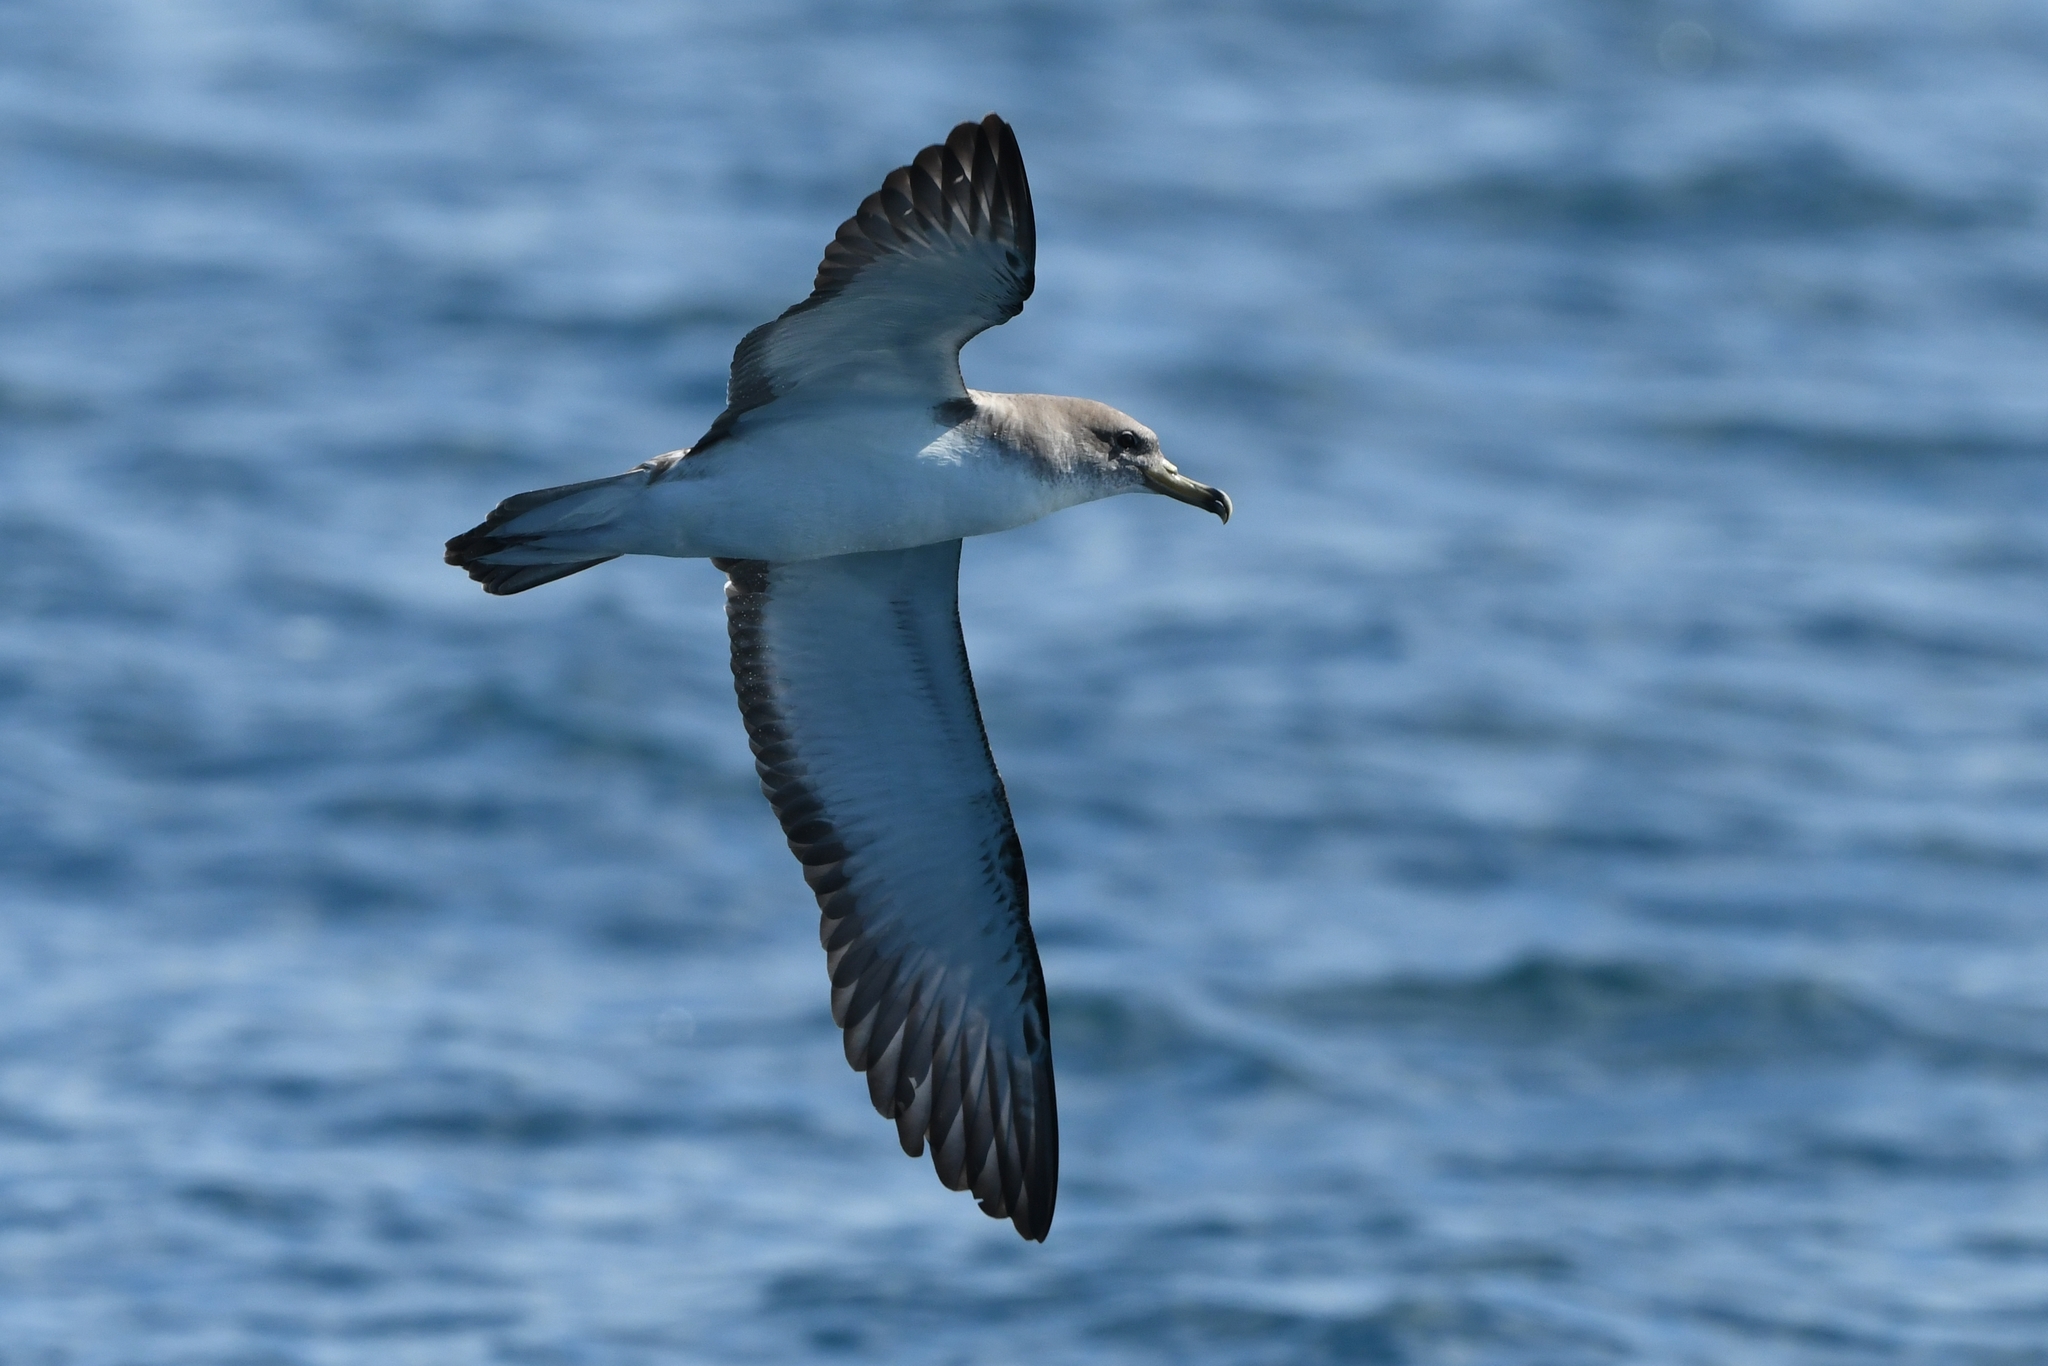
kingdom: Animalia
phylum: Chordata
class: Aves
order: Procellariiformes
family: Procellariidae
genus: Calonectris
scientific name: Calonectris diomedea
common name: Cory's shearwater
